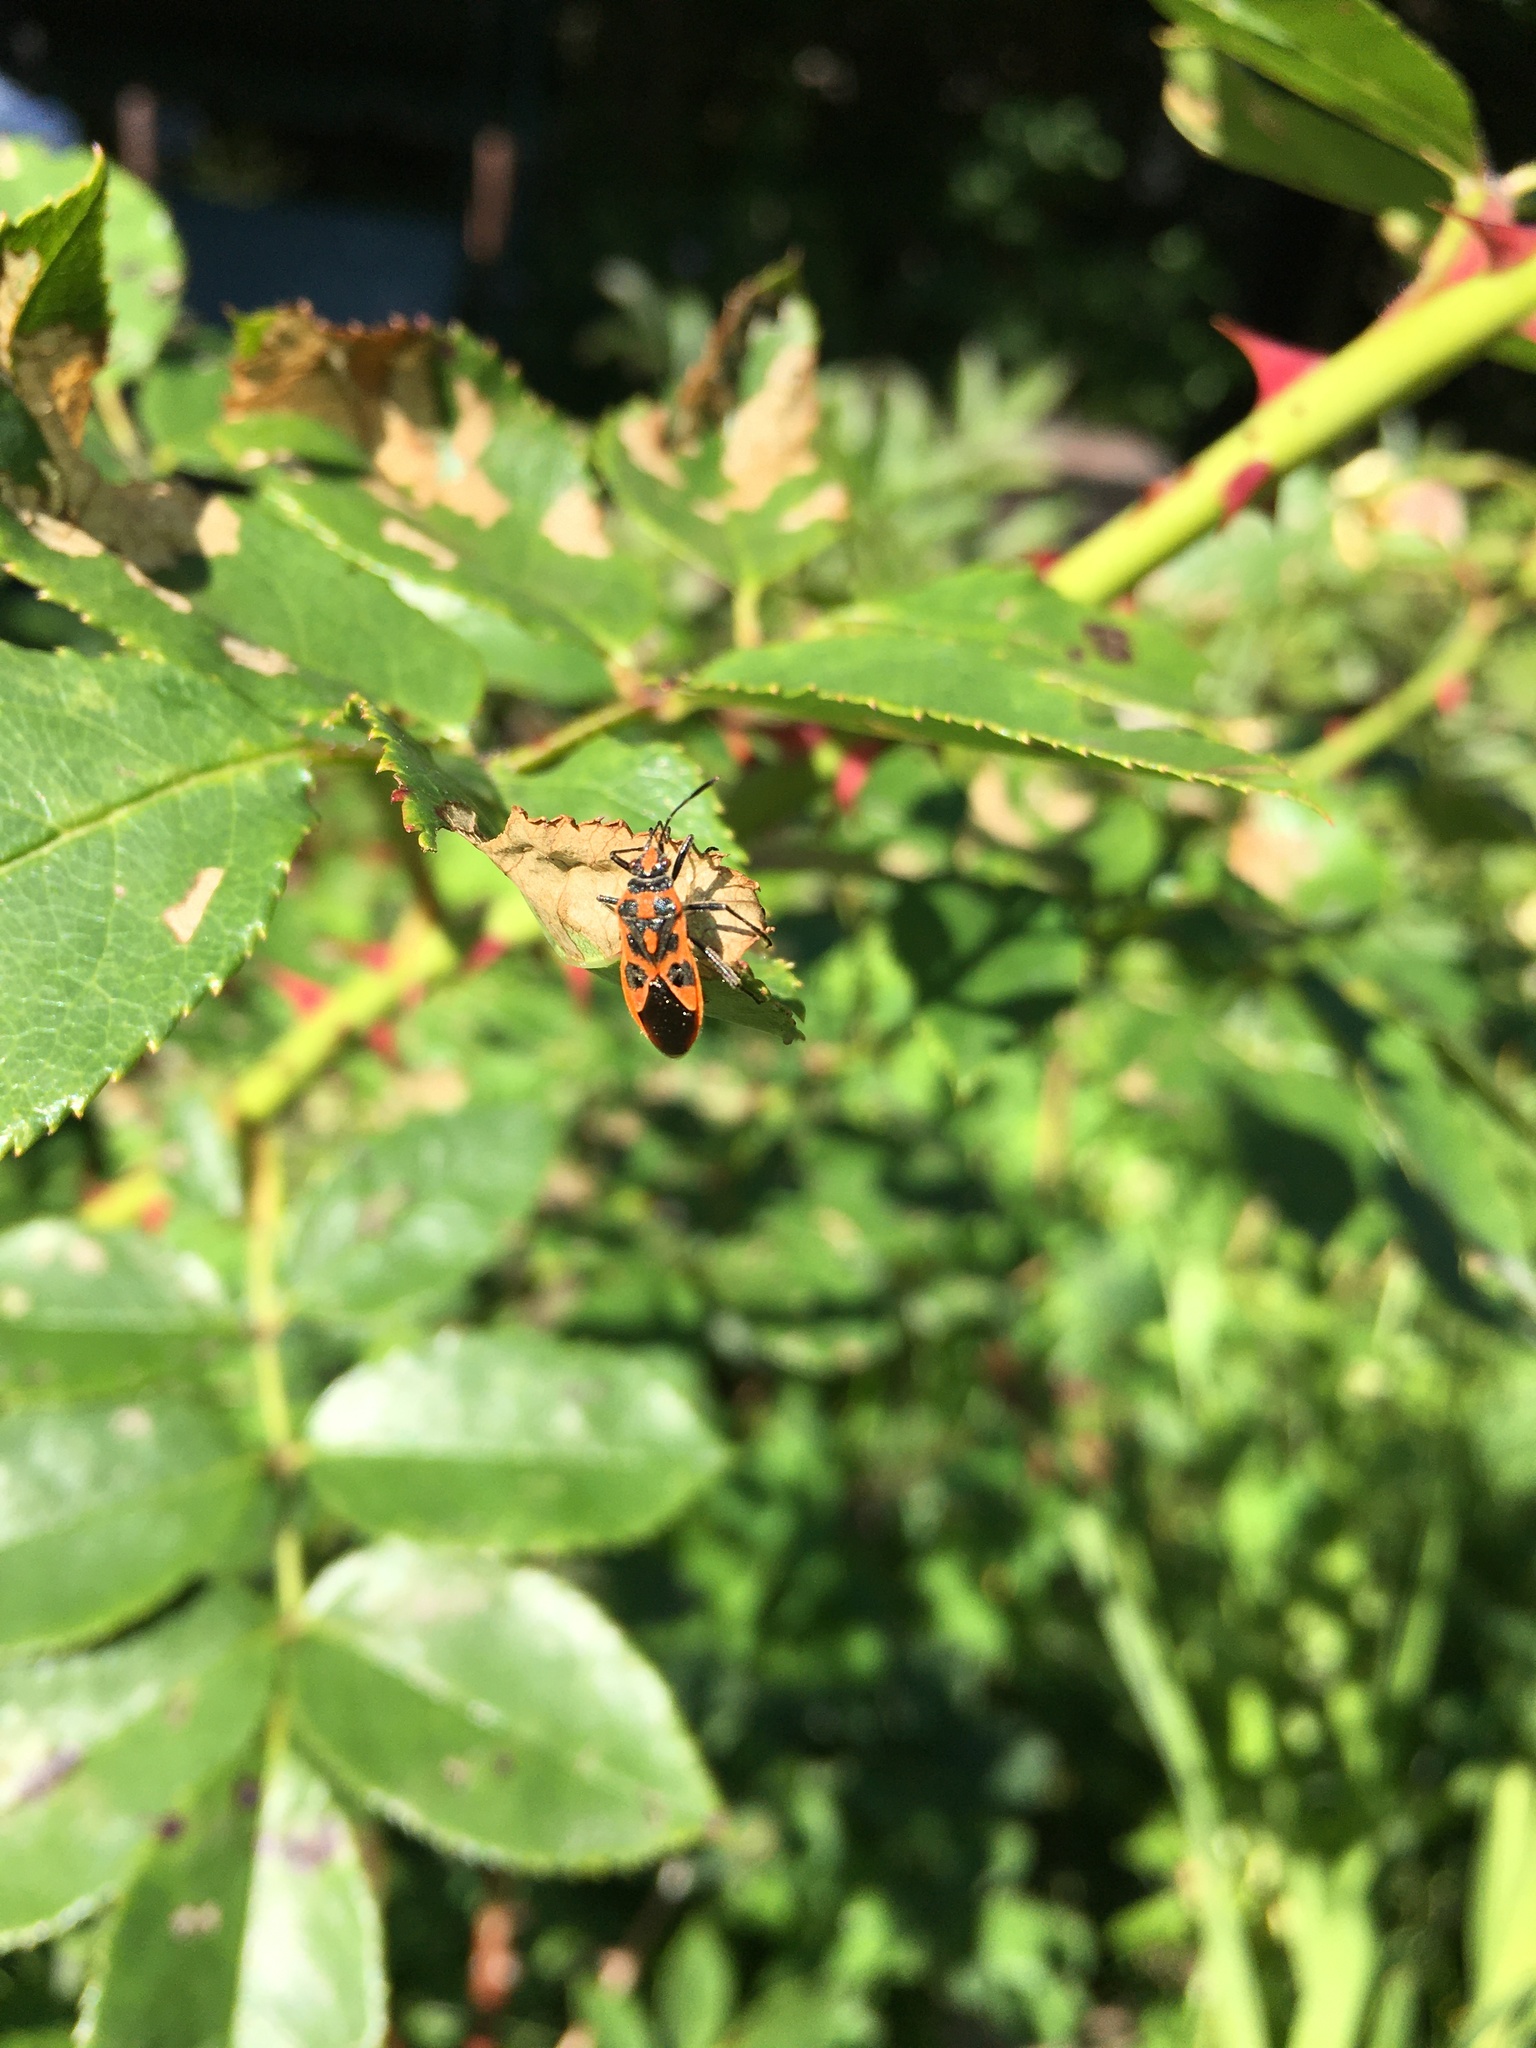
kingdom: Animalia
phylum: Arthropoda
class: Insecta
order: Hemiptera
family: Rhopalidae
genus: Corizus
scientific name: Corizus hyoscyami
